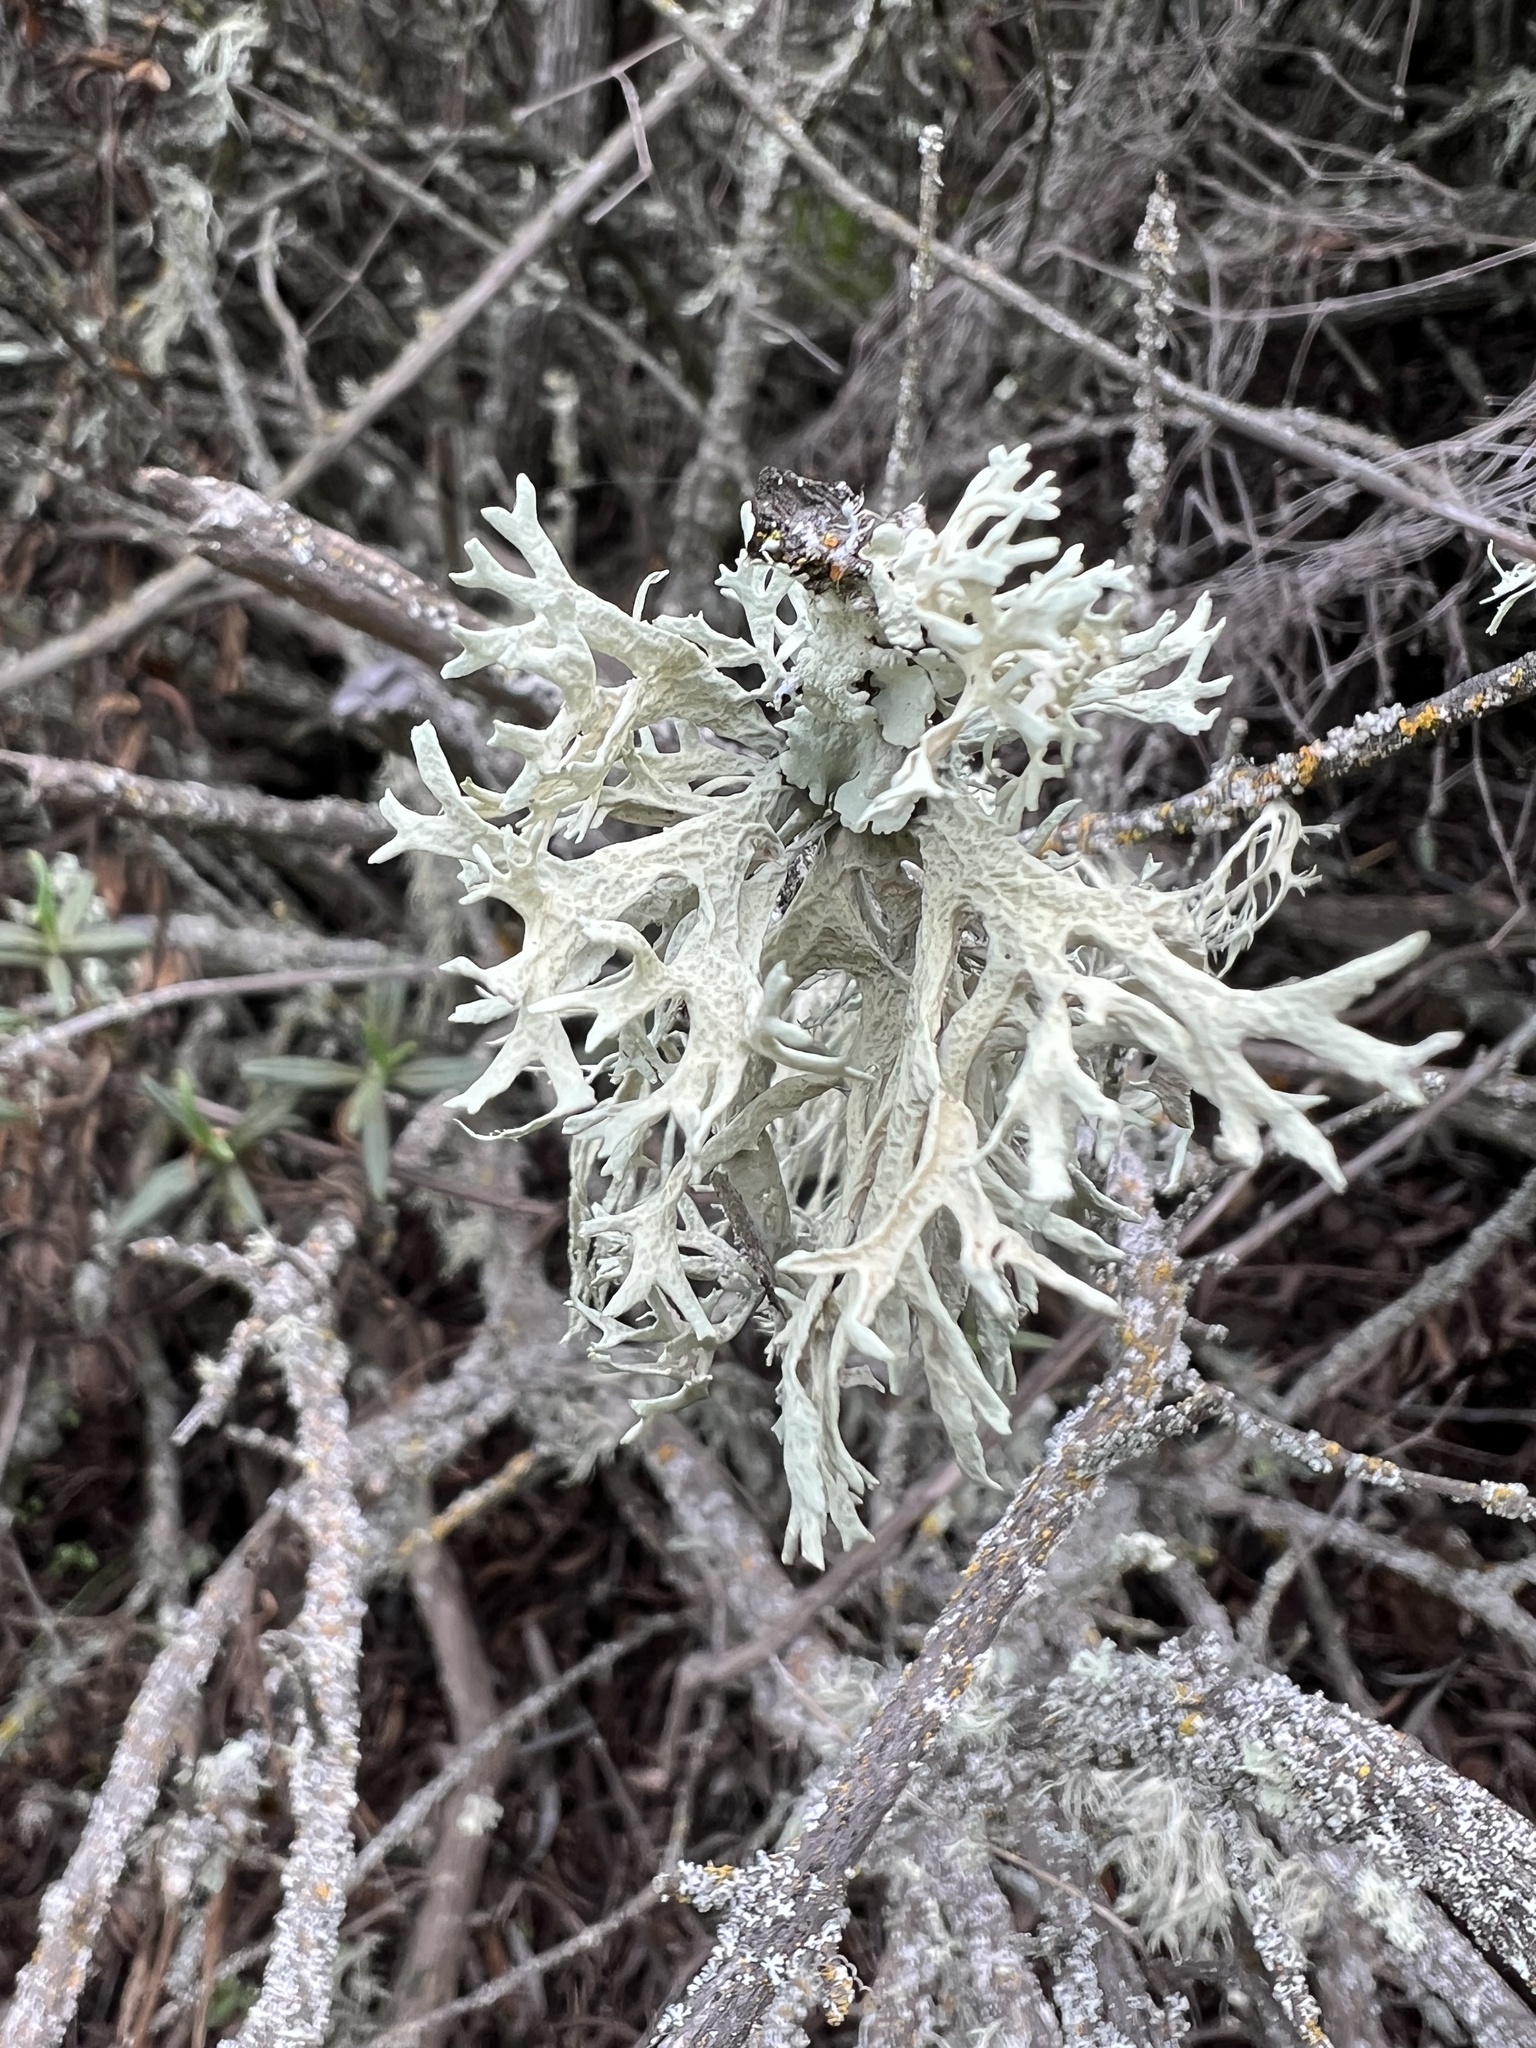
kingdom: Fungi
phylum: Ascomycota
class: Lecanoromycetes
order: Lecanorales
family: Parmeliaceae
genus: Evernia
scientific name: Evernia prunastri
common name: Oak moss
